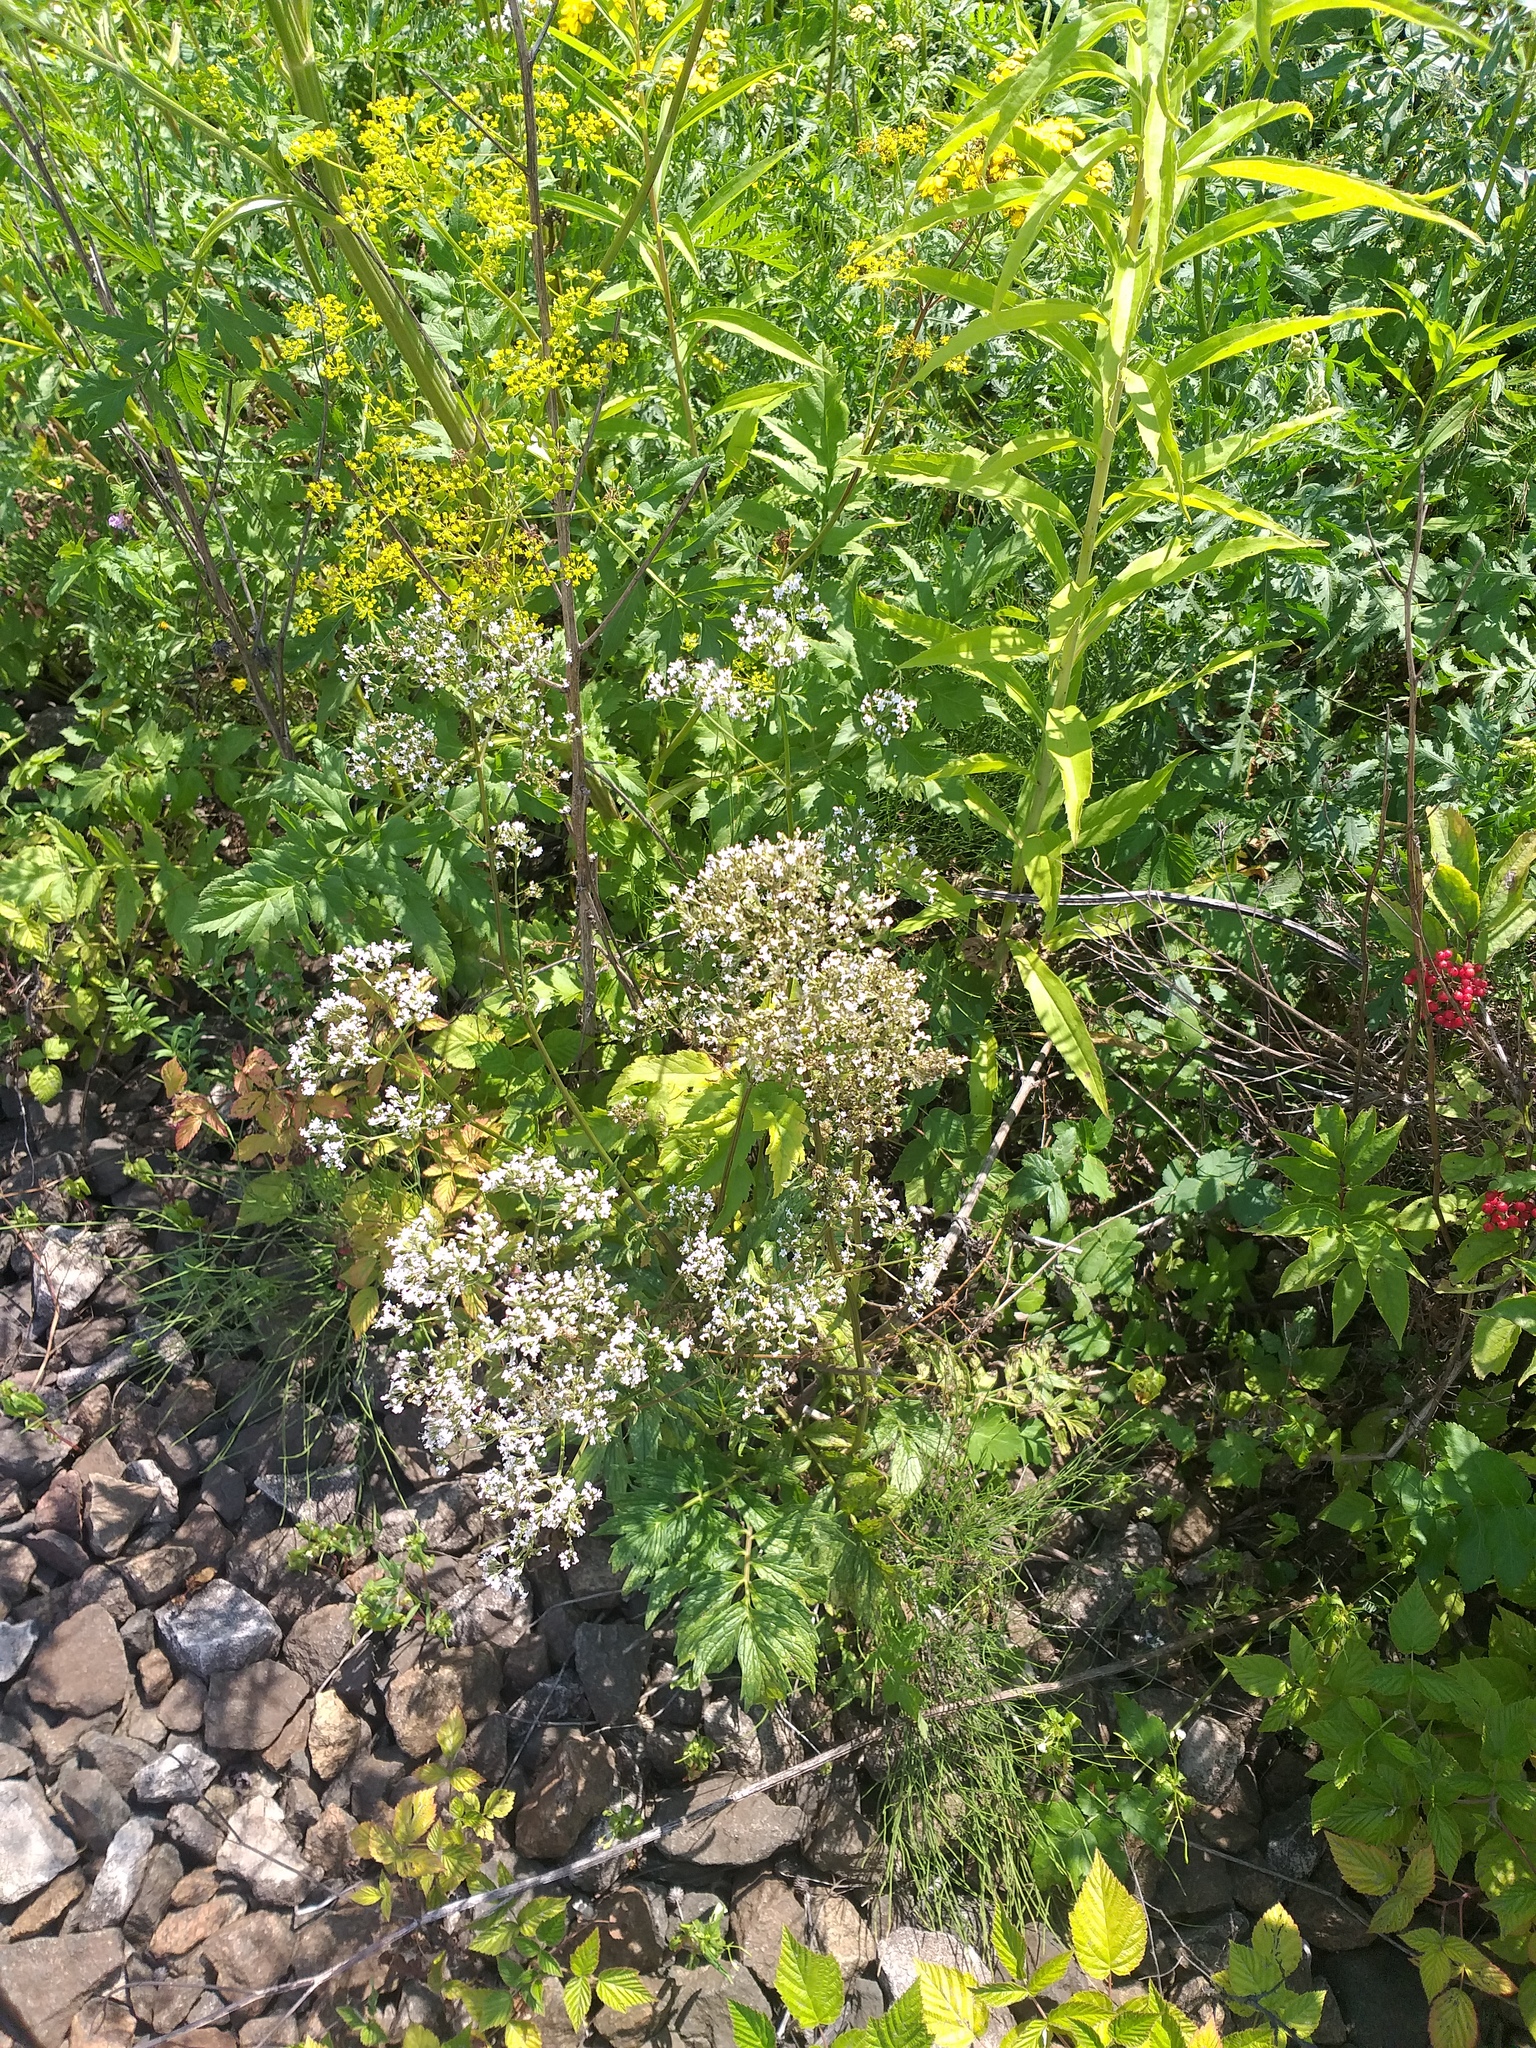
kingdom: Plantae
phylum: Tracheophyta
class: Magnoliopsida
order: Dipsacales
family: Caprifoliaceae
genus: Valeriana
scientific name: Valeriana officinalis
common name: Common valerian
